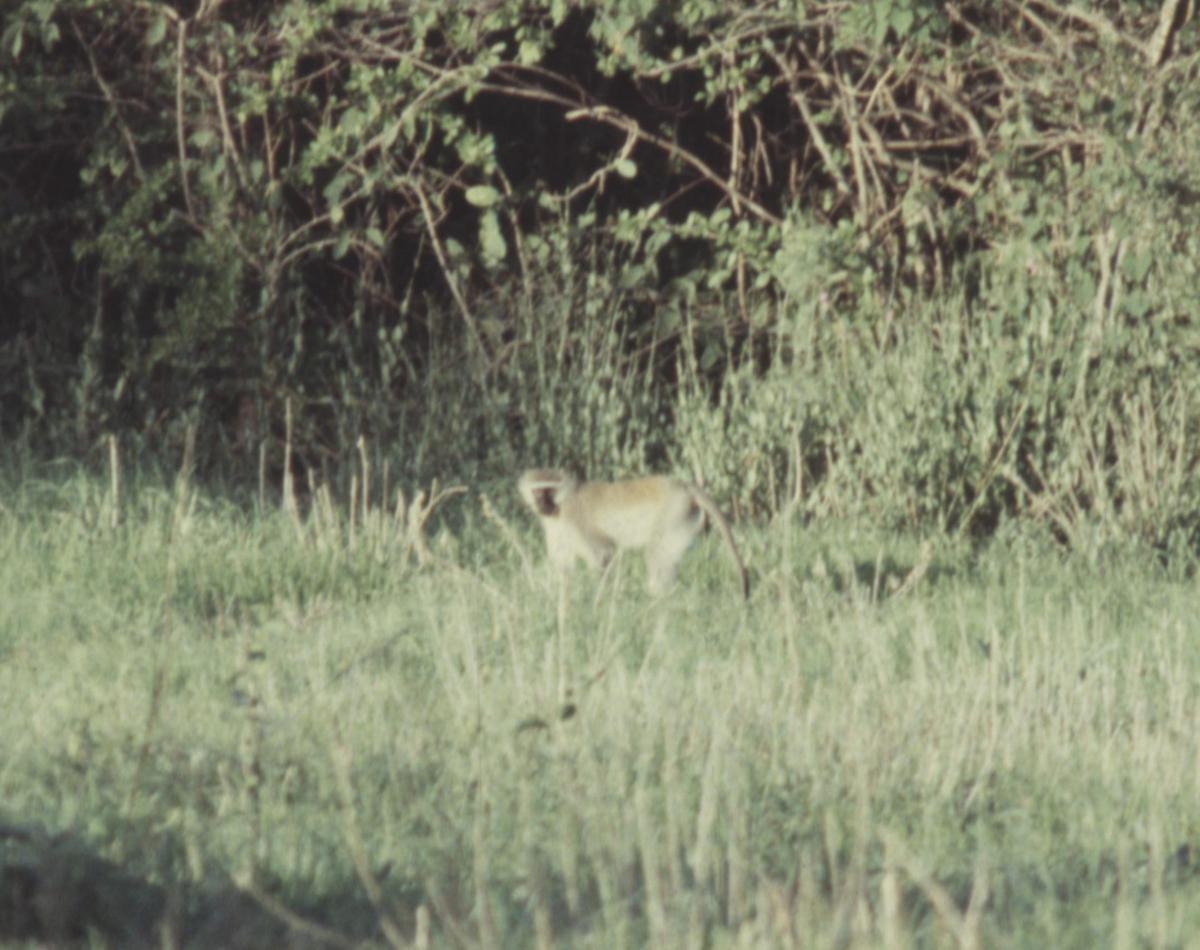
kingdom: Animalia
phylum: Chordata
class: Mammalia
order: Primates
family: Cercopithecidae
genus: Chlorocebus
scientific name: Chlorocebus pygerythrus
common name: Vervet monkey
